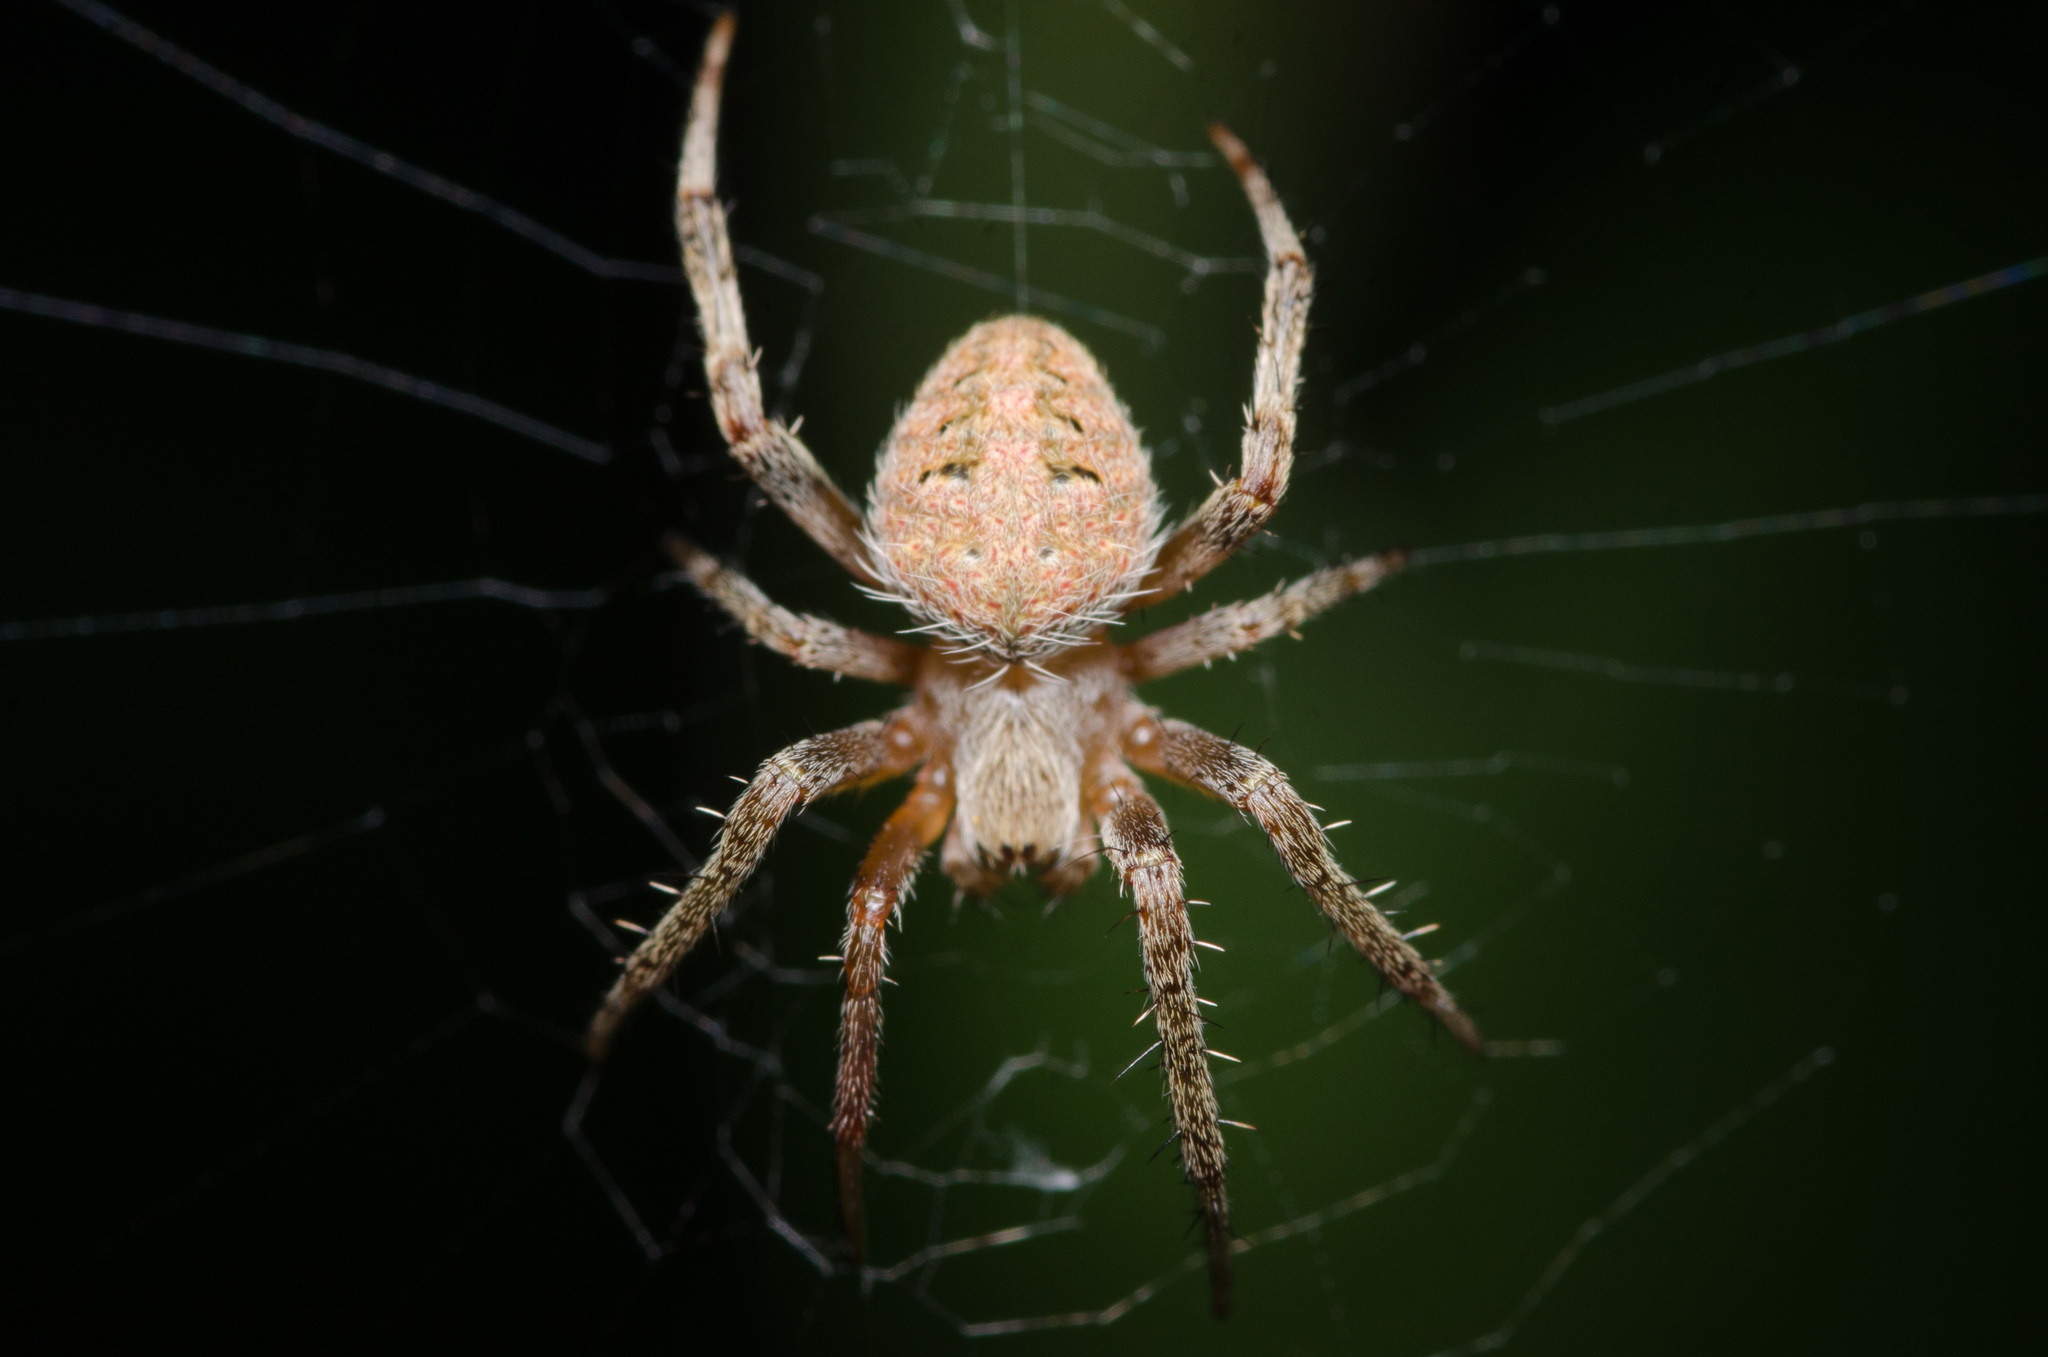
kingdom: Animalia
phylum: Arthropoda
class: Arachnida
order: Araneae
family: Araneidae
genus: Neoscona
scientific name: Neoscona crucifera
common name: Spotted orbweaver
